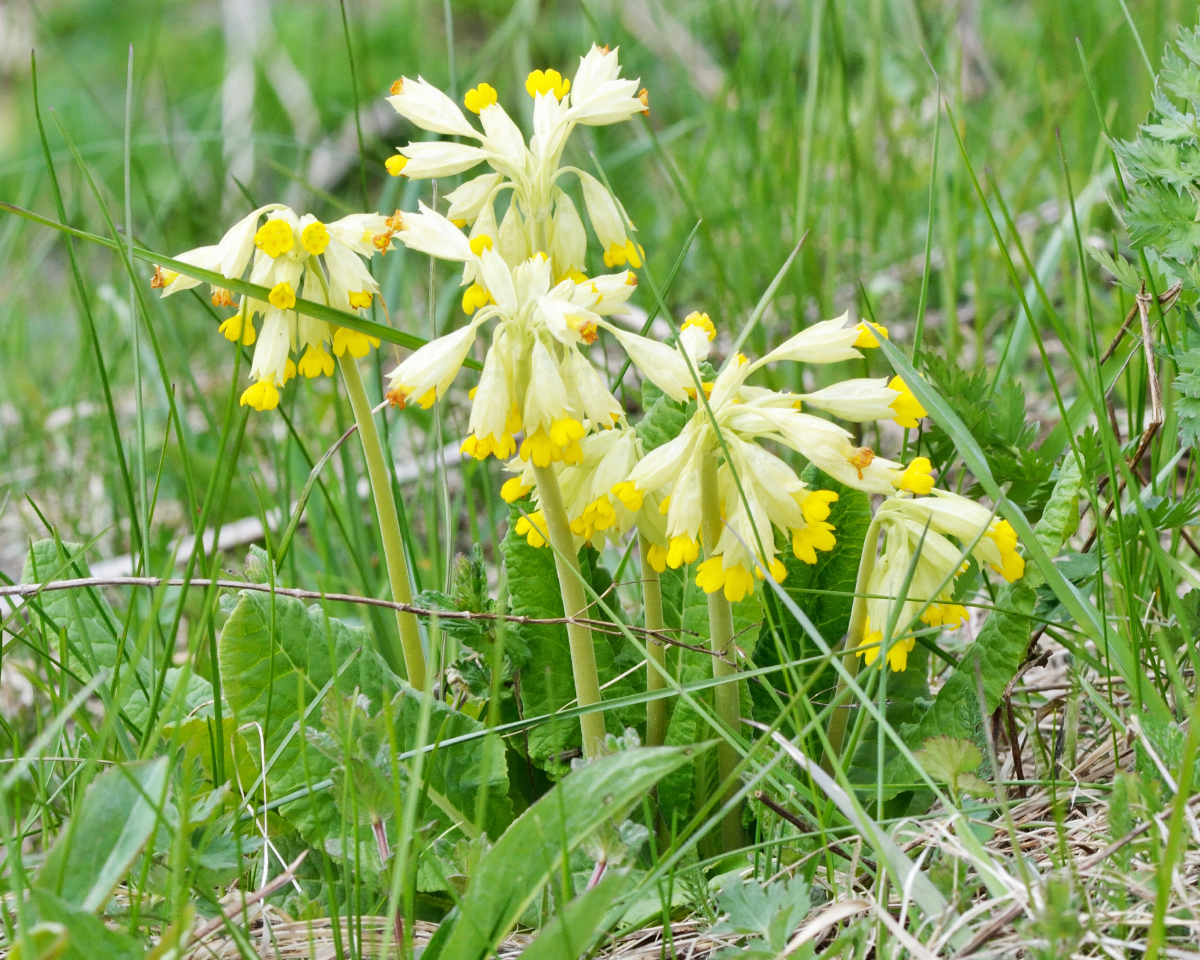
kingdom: Plantae
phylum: Tracheophyta
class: Magnoliopsida
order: Ericales
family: Primulaceae
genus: Primula
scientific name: Primula veris
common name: Cowslip
